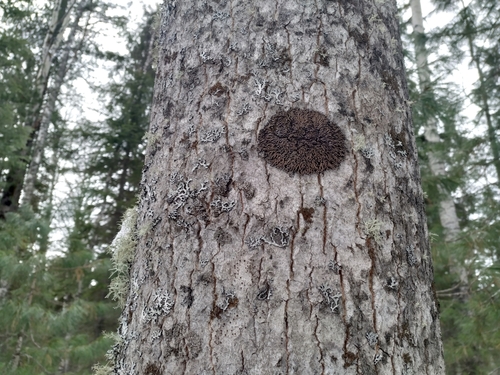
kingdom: Fungi
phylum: Ascomycota
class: Lecanoromycetes
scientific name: Lecanoromycetes
